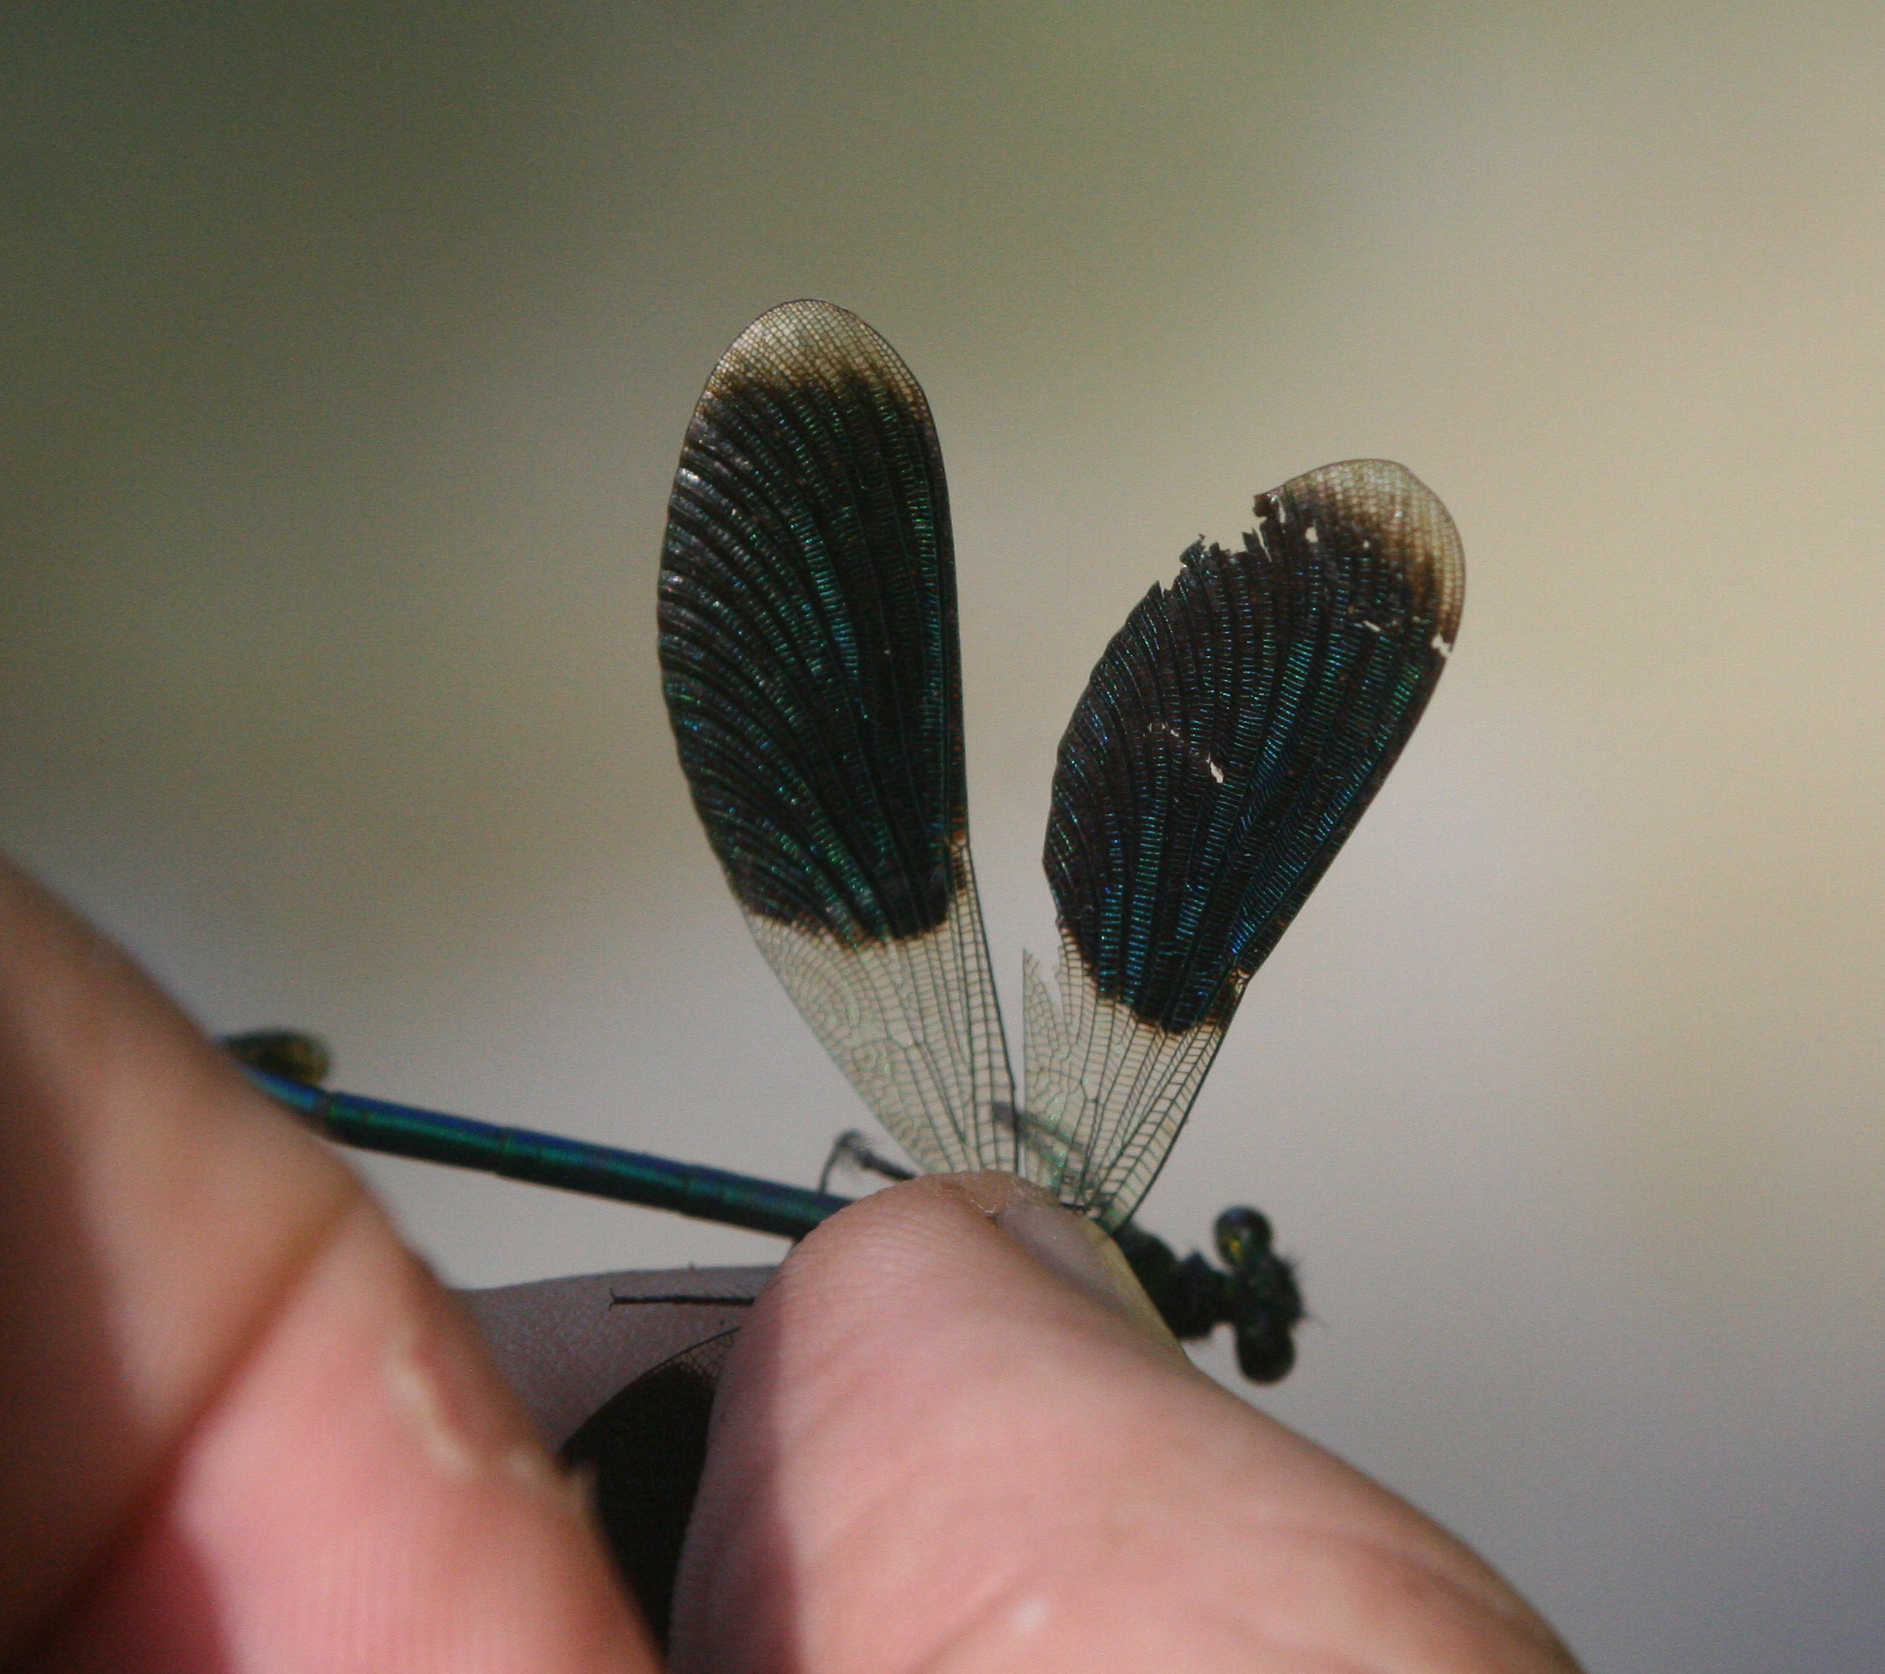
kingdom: Animalia
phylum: Arthropoda
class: Insecta
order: Odonata
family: Calopterygidae
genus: Calopteryx
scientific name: Calopteryx splendens
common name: Banded demoiselle
